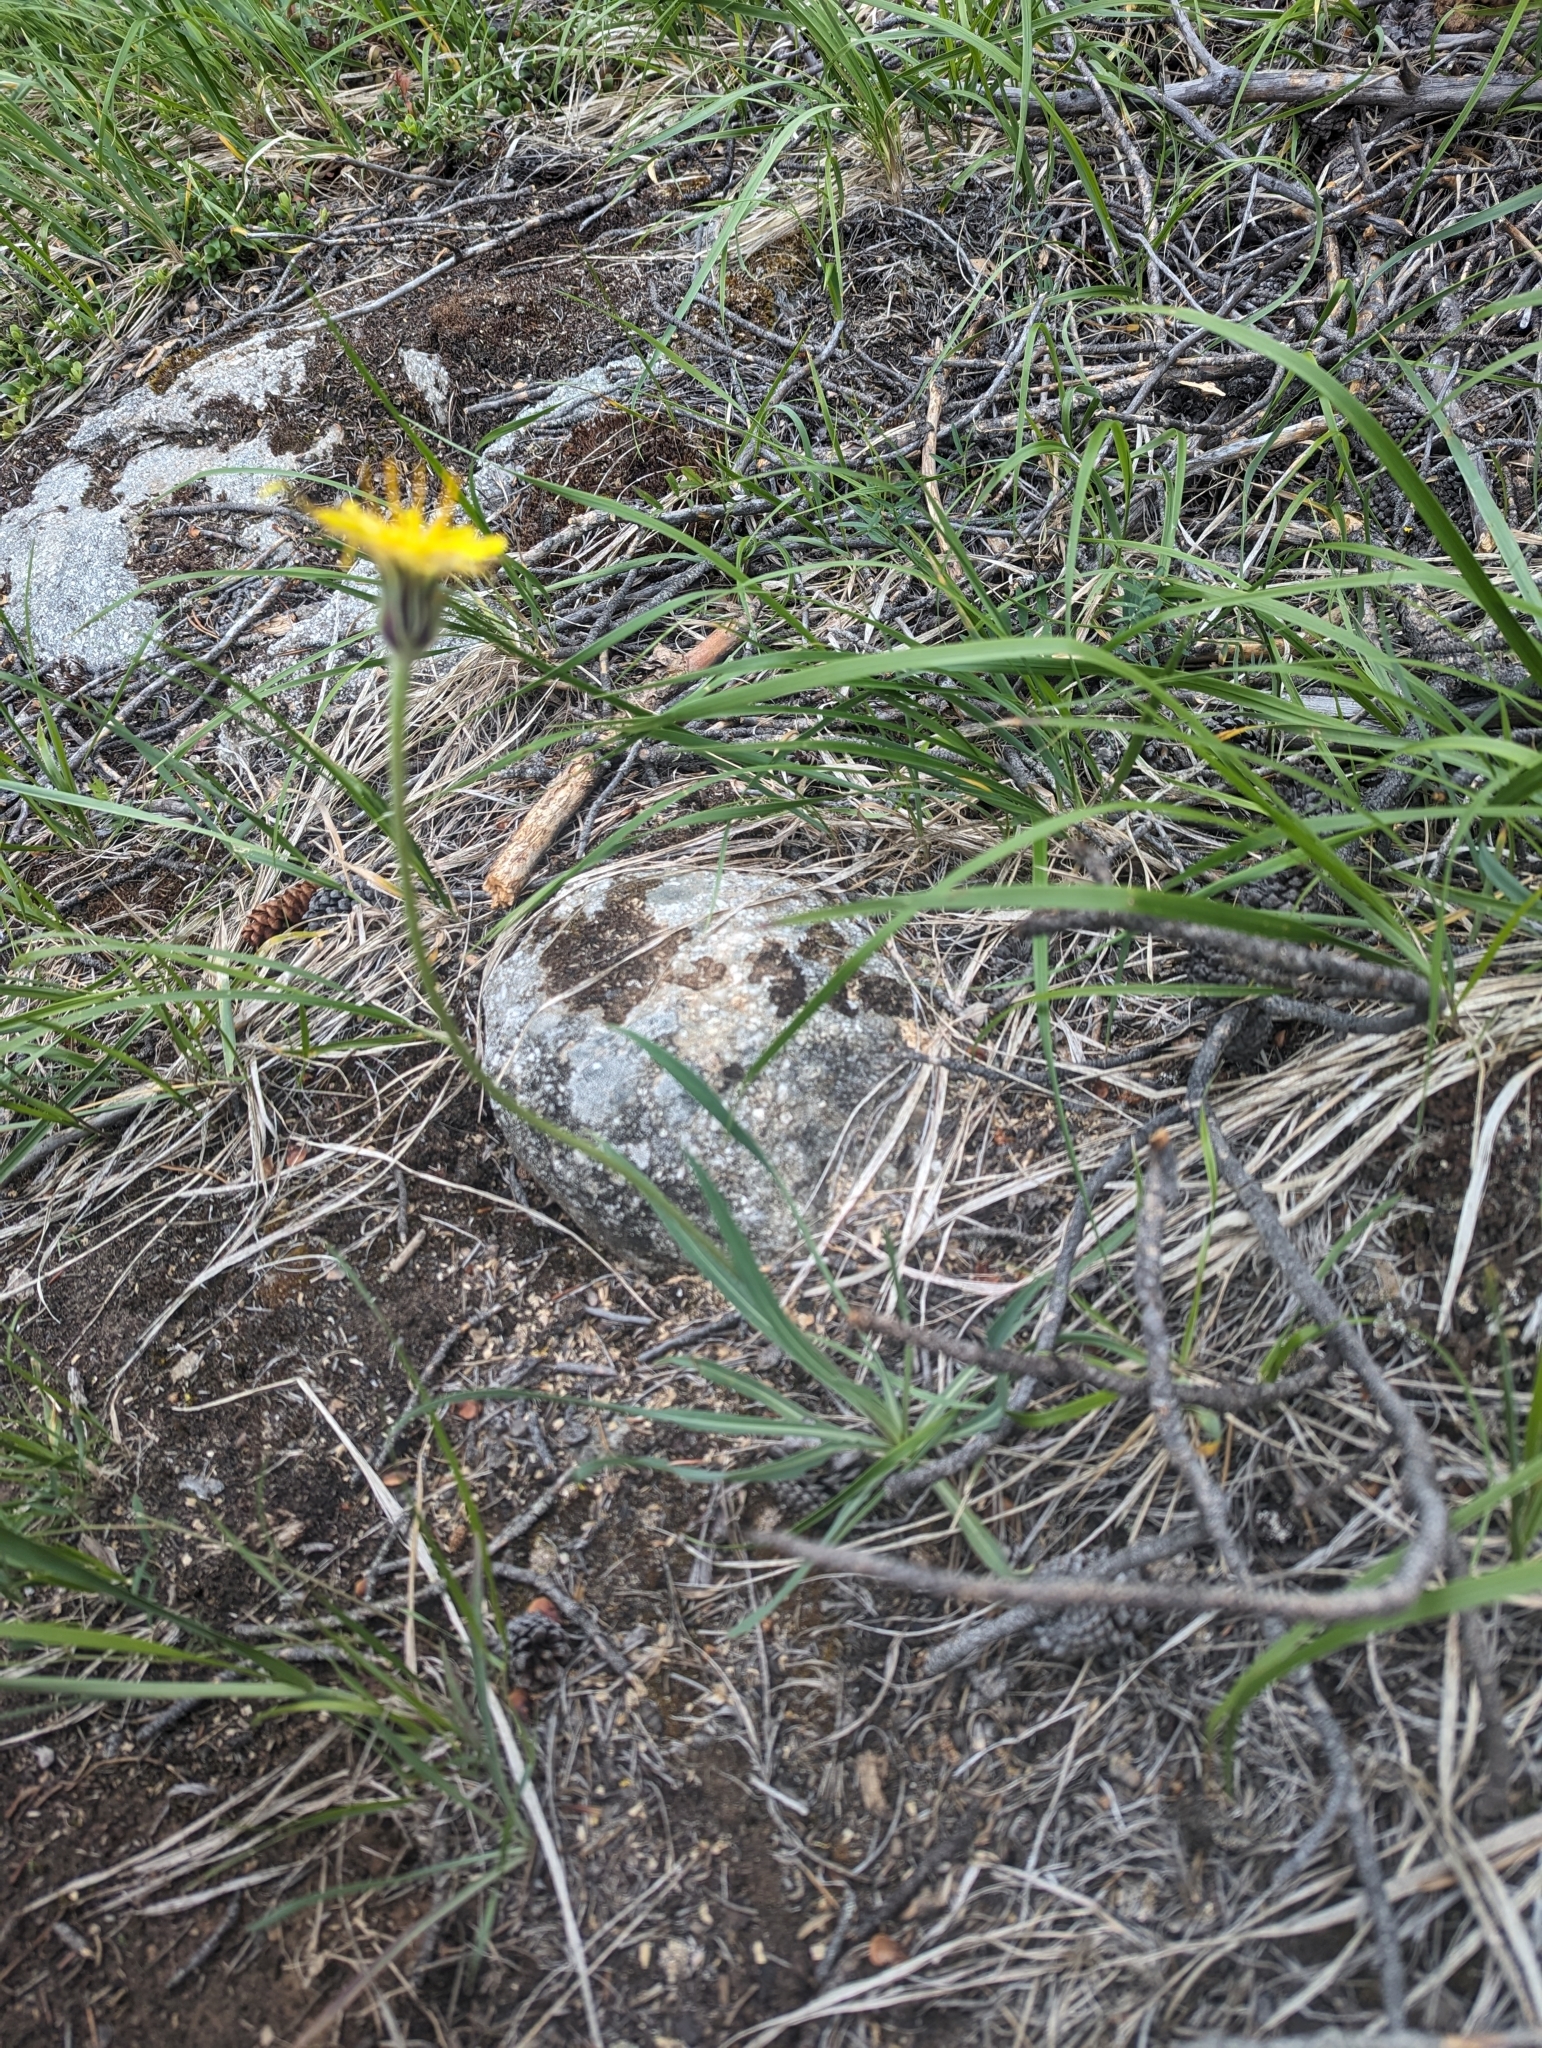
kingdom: Plantae
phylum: Tracheophyta
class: Magnoliopsida
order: Asterales
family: Asteraceae
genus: Agoseris
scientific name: Agoseris glauca
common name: Prairie agoseris
